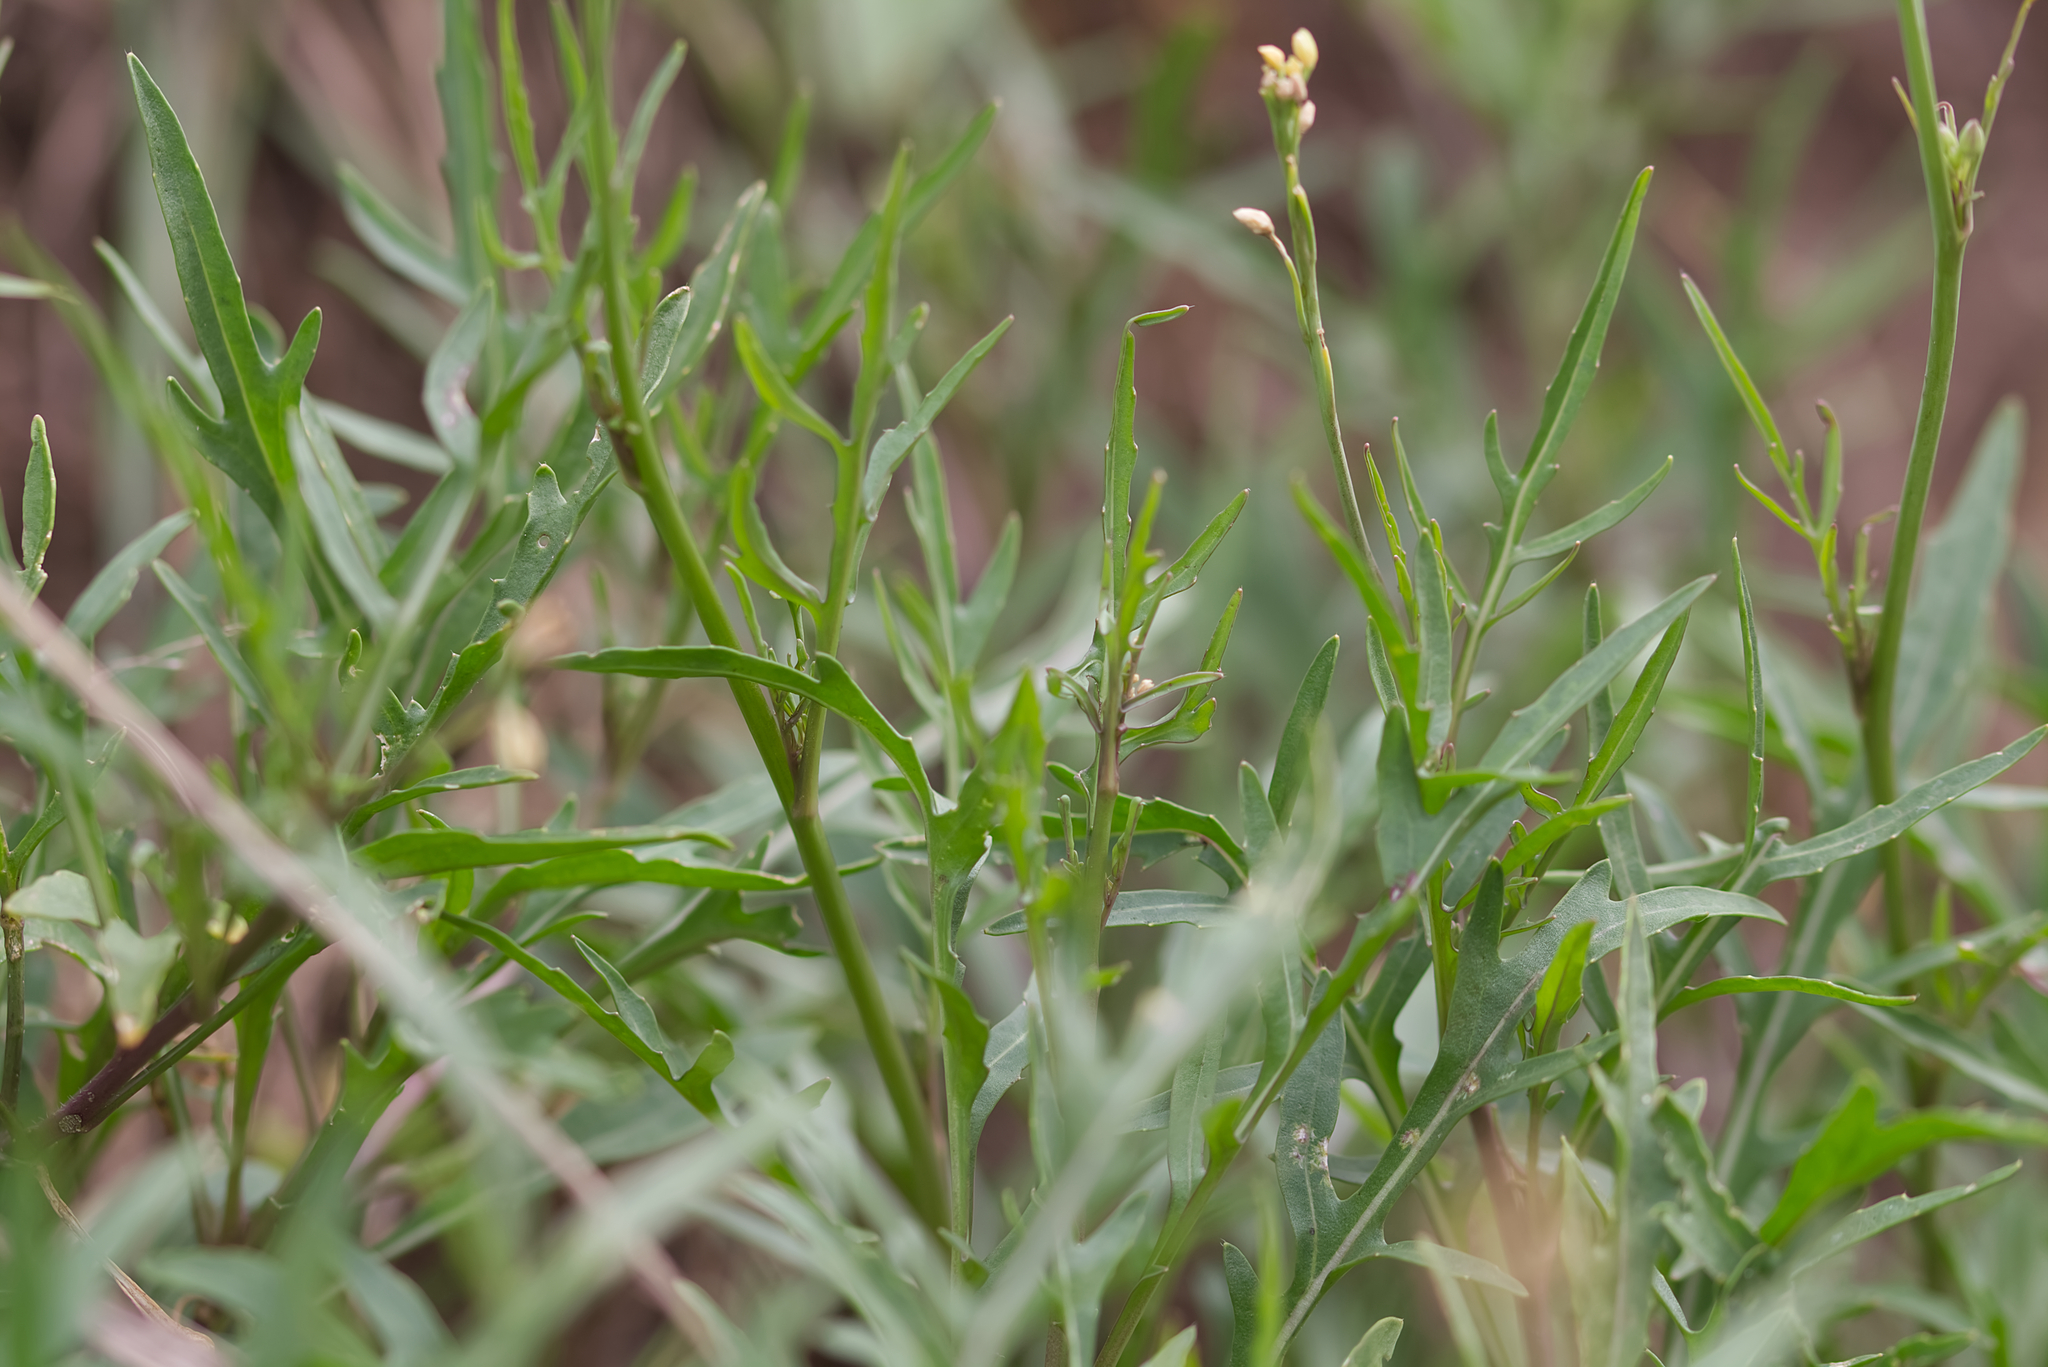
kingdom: Plantae
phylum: Tracheophyta
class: Magnoliopsida
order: Brassicales
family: Brassicaceae
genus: Diplotaxis
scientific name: Diplotaxis tenuifolia
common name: Perennial wall-rocket
